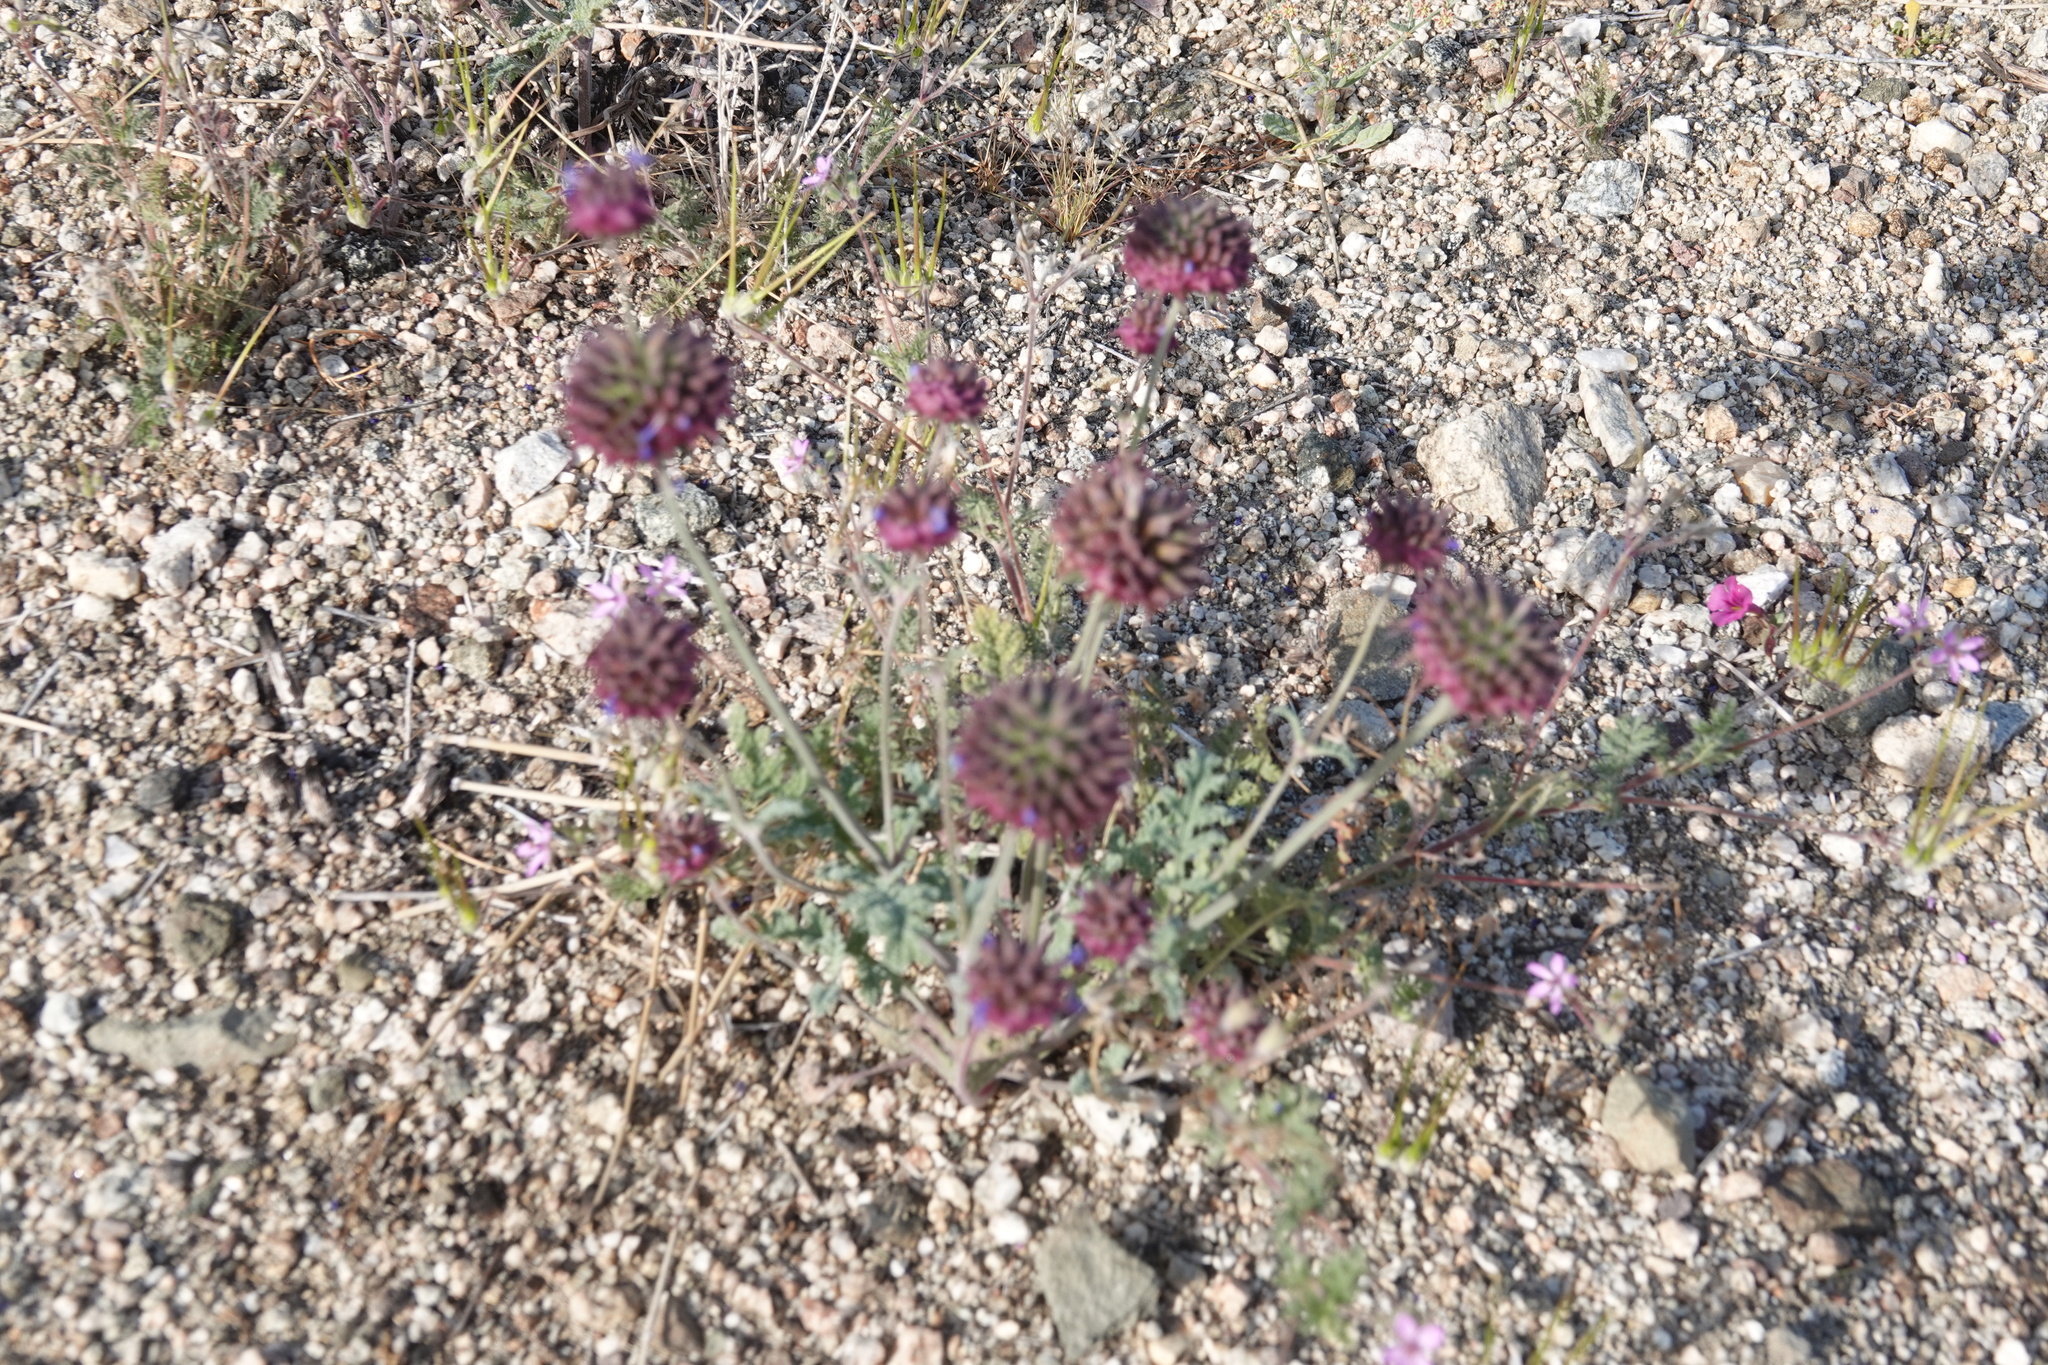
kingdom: Plantae
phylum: Tracheophyta
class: Magnoliopsida
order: Lamiales
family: Lamiaceae
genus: Salvia
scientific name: Salvia columbariae
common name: Chia
